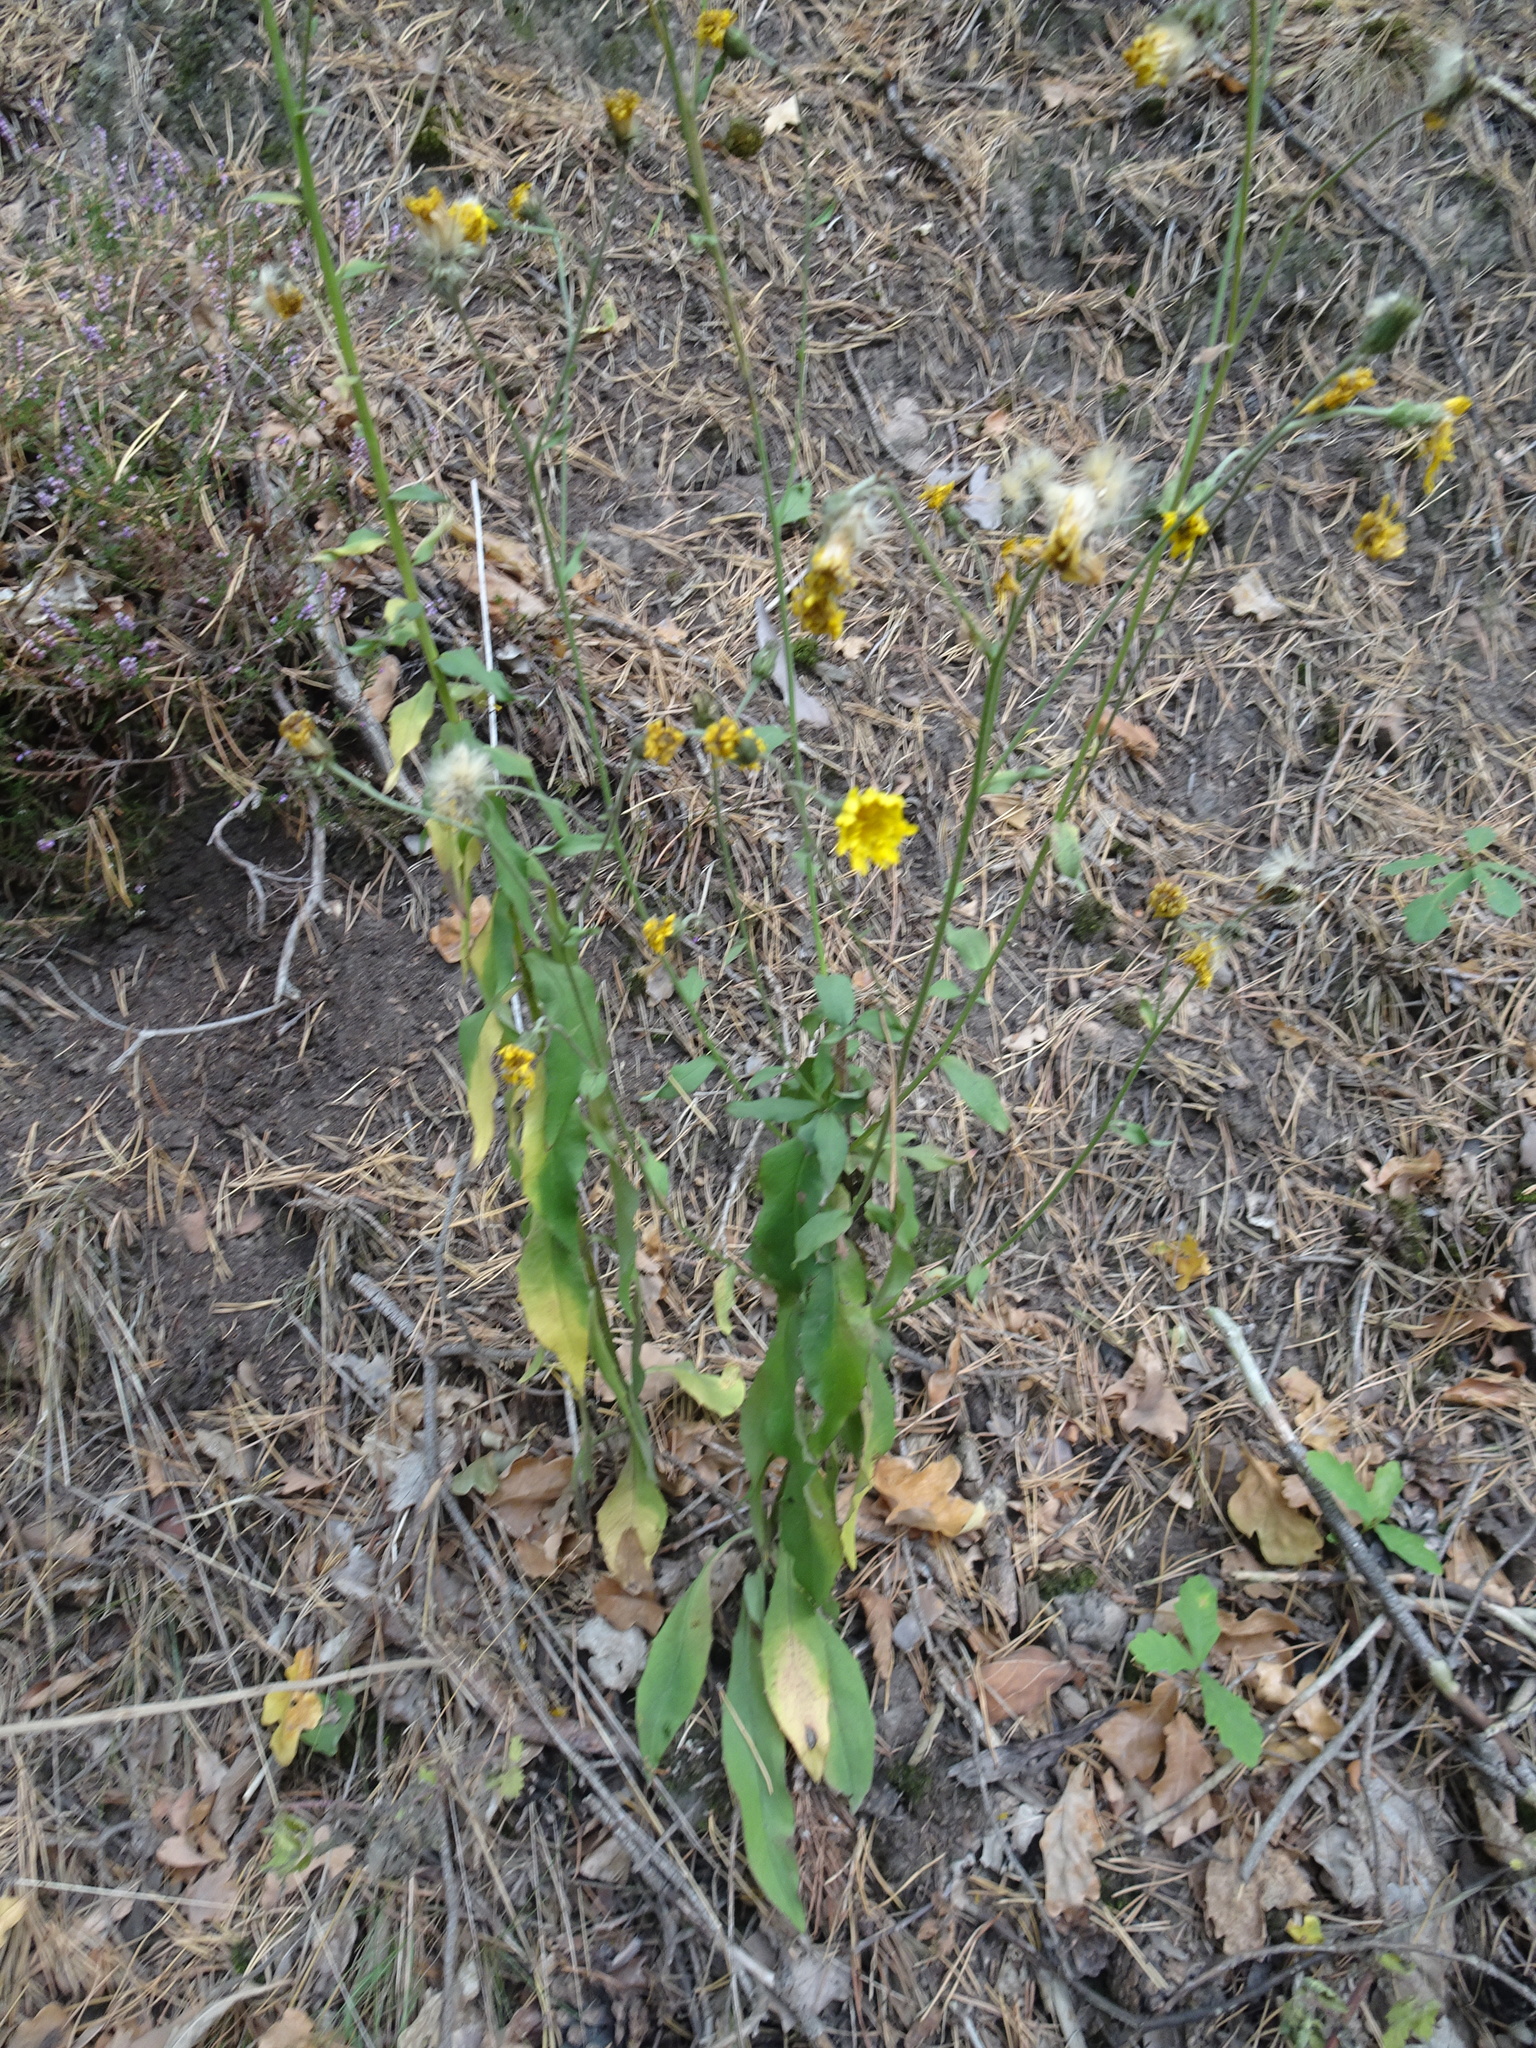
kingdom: Plantae
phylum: Tracheophyta
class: Magnoliopsida
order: Asterales
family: Asteraceae
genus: Hieracium
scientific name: Hieracium umbellatum
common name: Northern hawkweed
